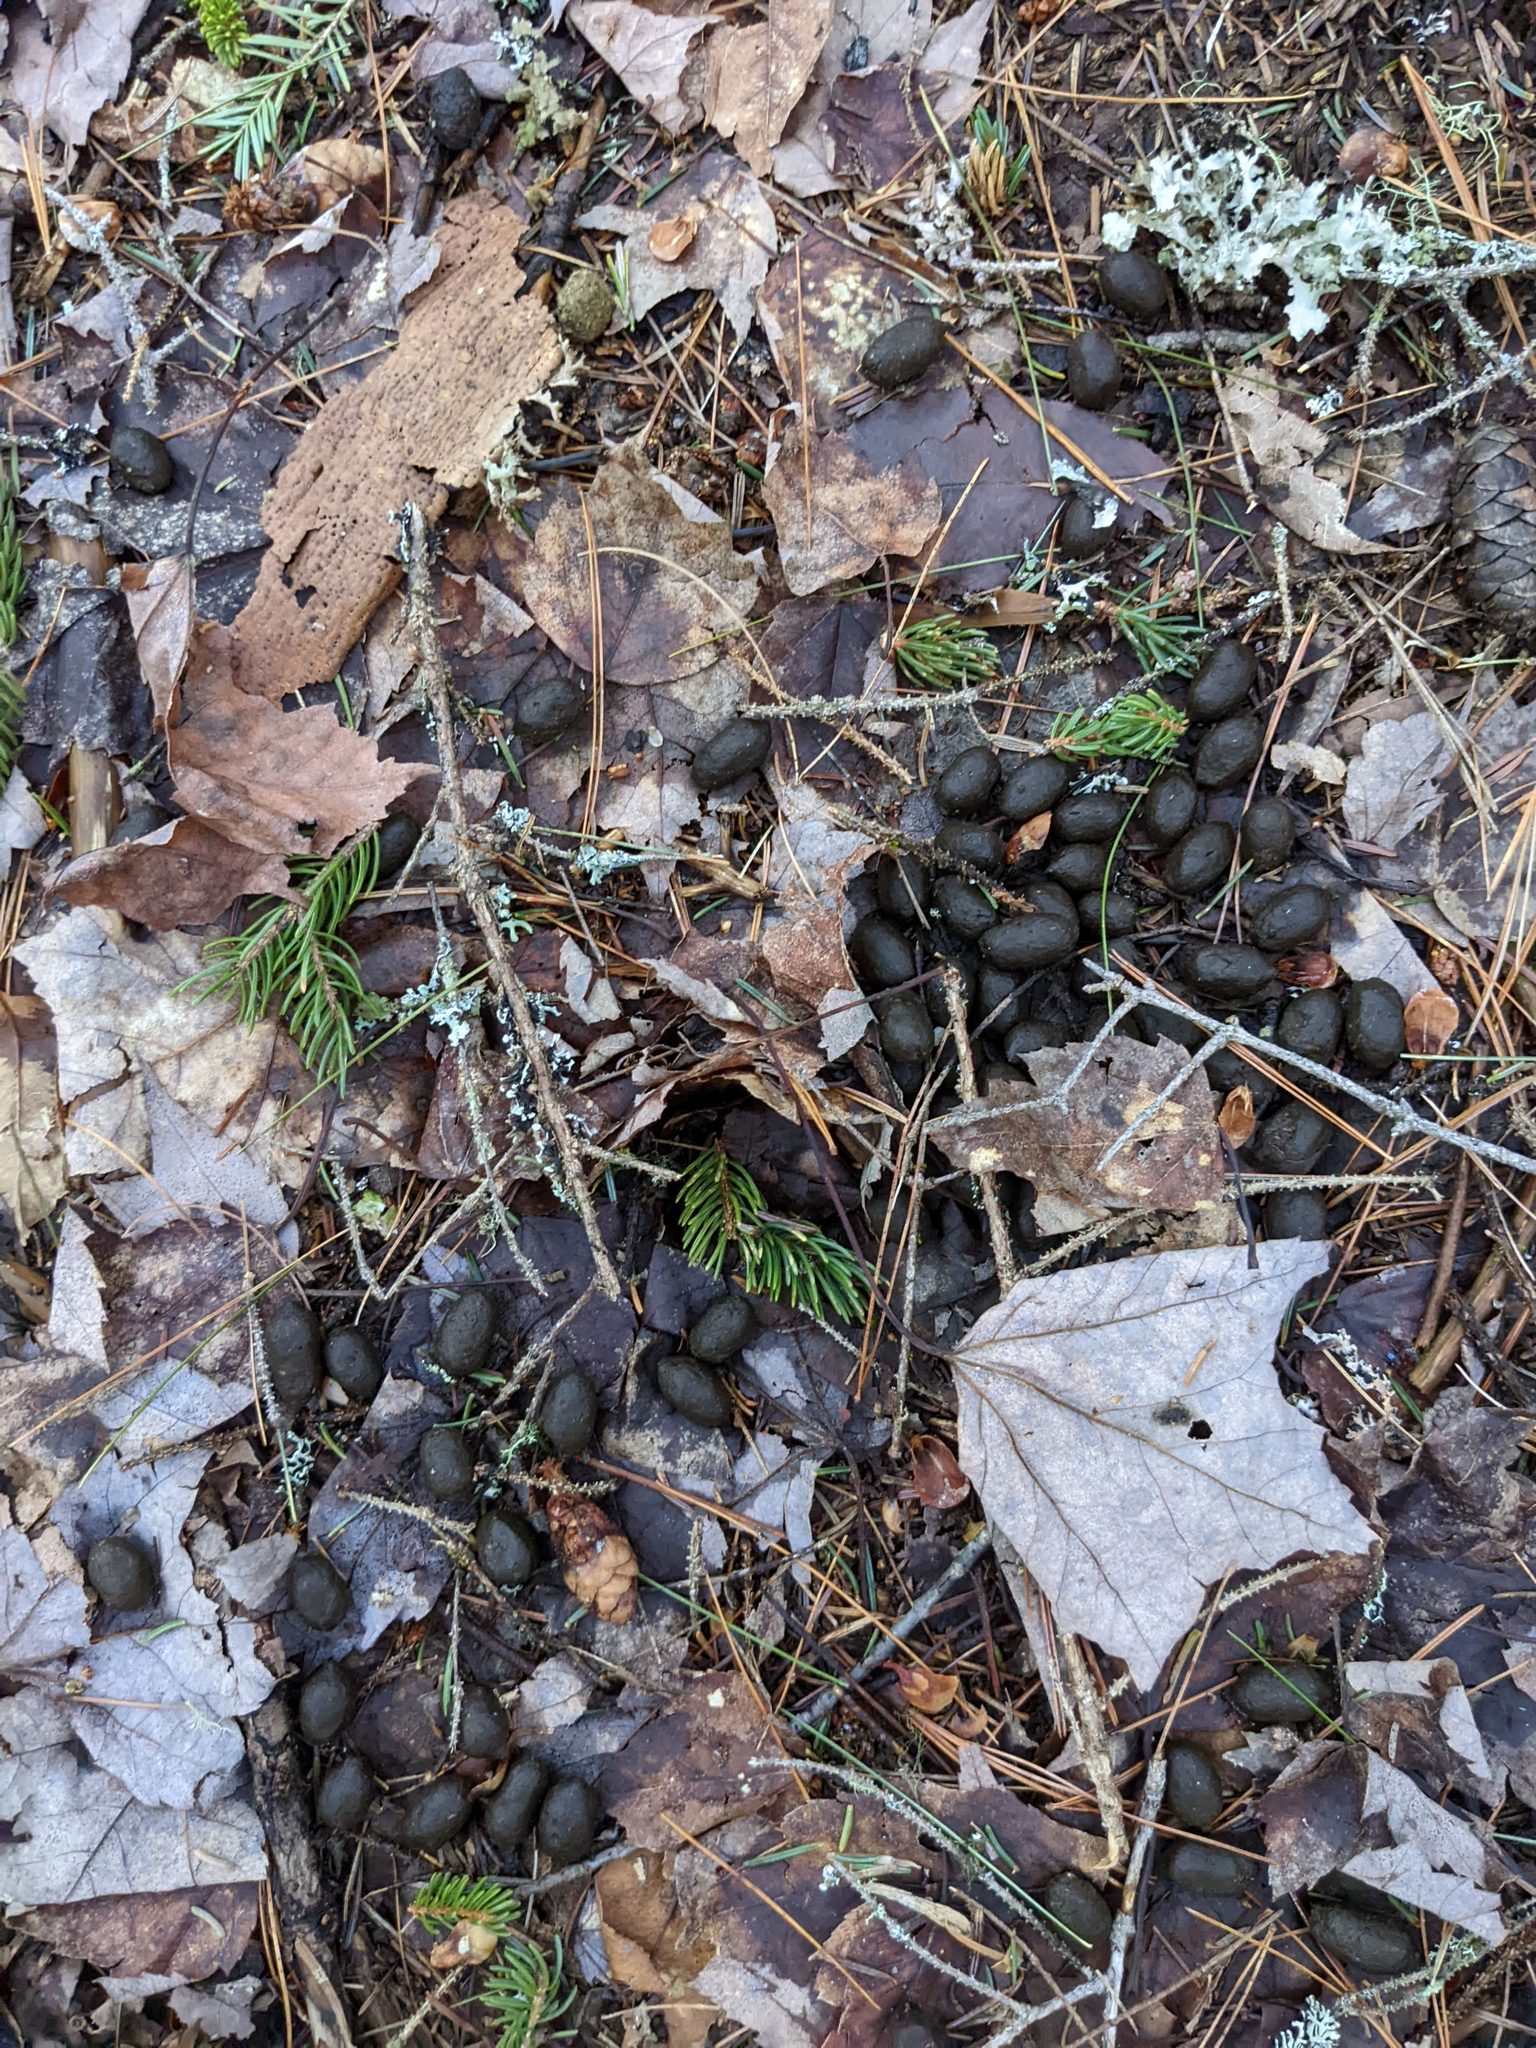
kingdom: Animalia
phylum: Chordata
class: Mammalia
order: Artiodactyla
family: Cervidae
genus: Odocoileus
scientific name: Odocoileus virginianus
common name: White-tailed deer
